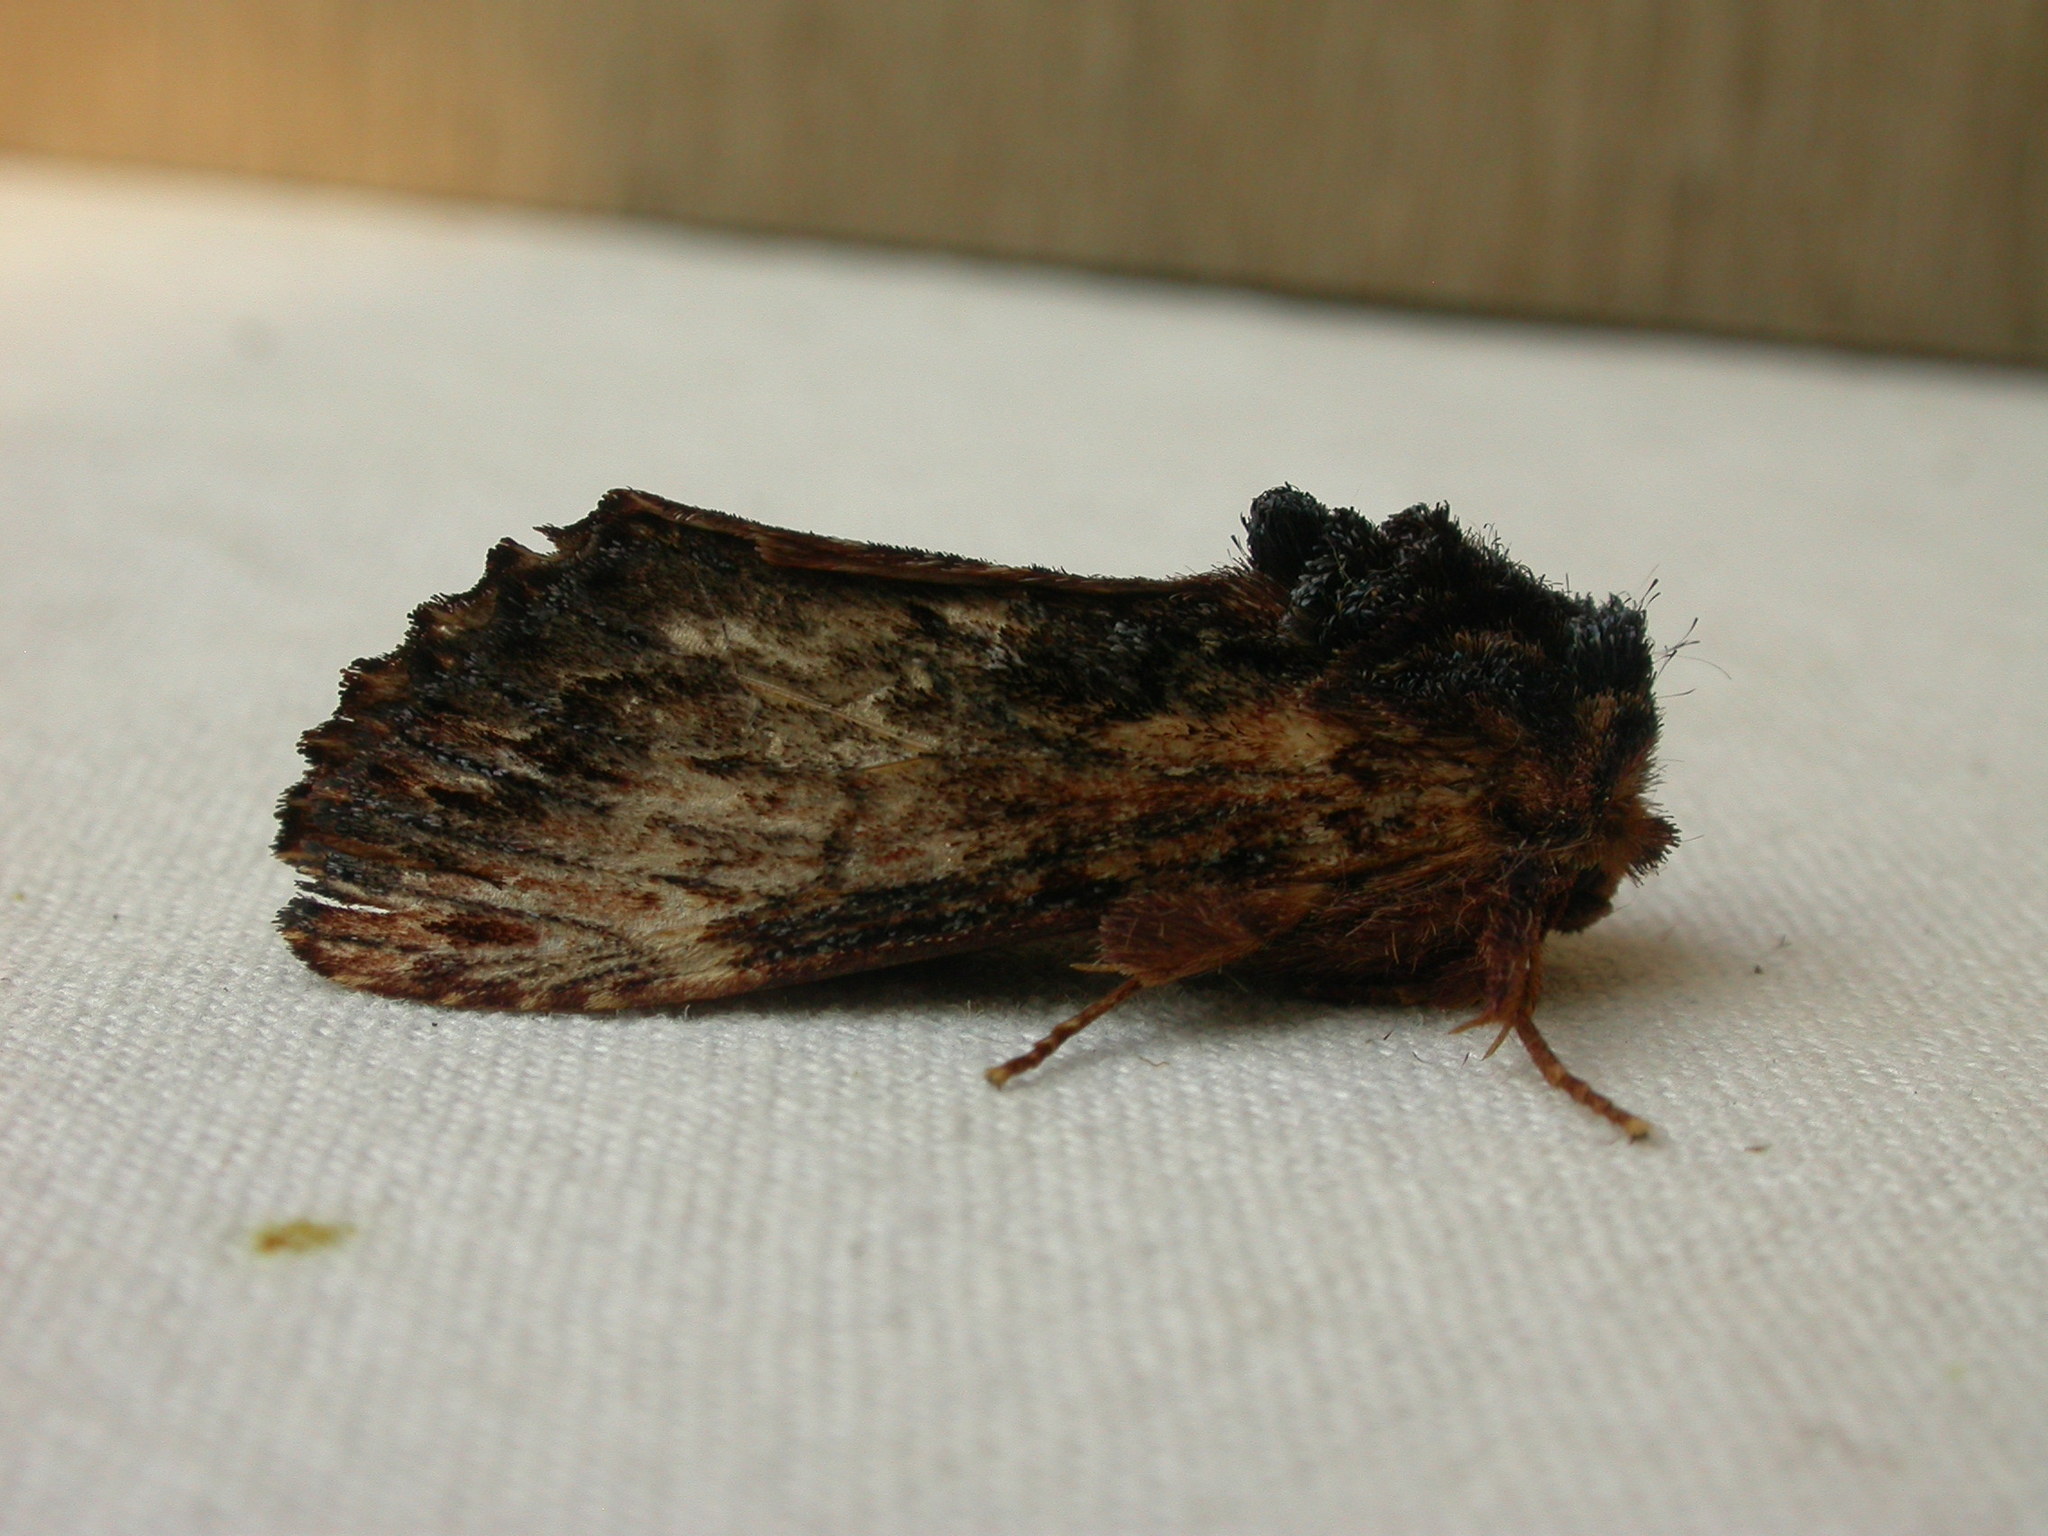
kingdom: Animalia
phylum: Arthropoda
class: Insecta
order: Lepidoptera
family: Notodontidae
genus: Sorama
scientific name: Sorama bicolor
